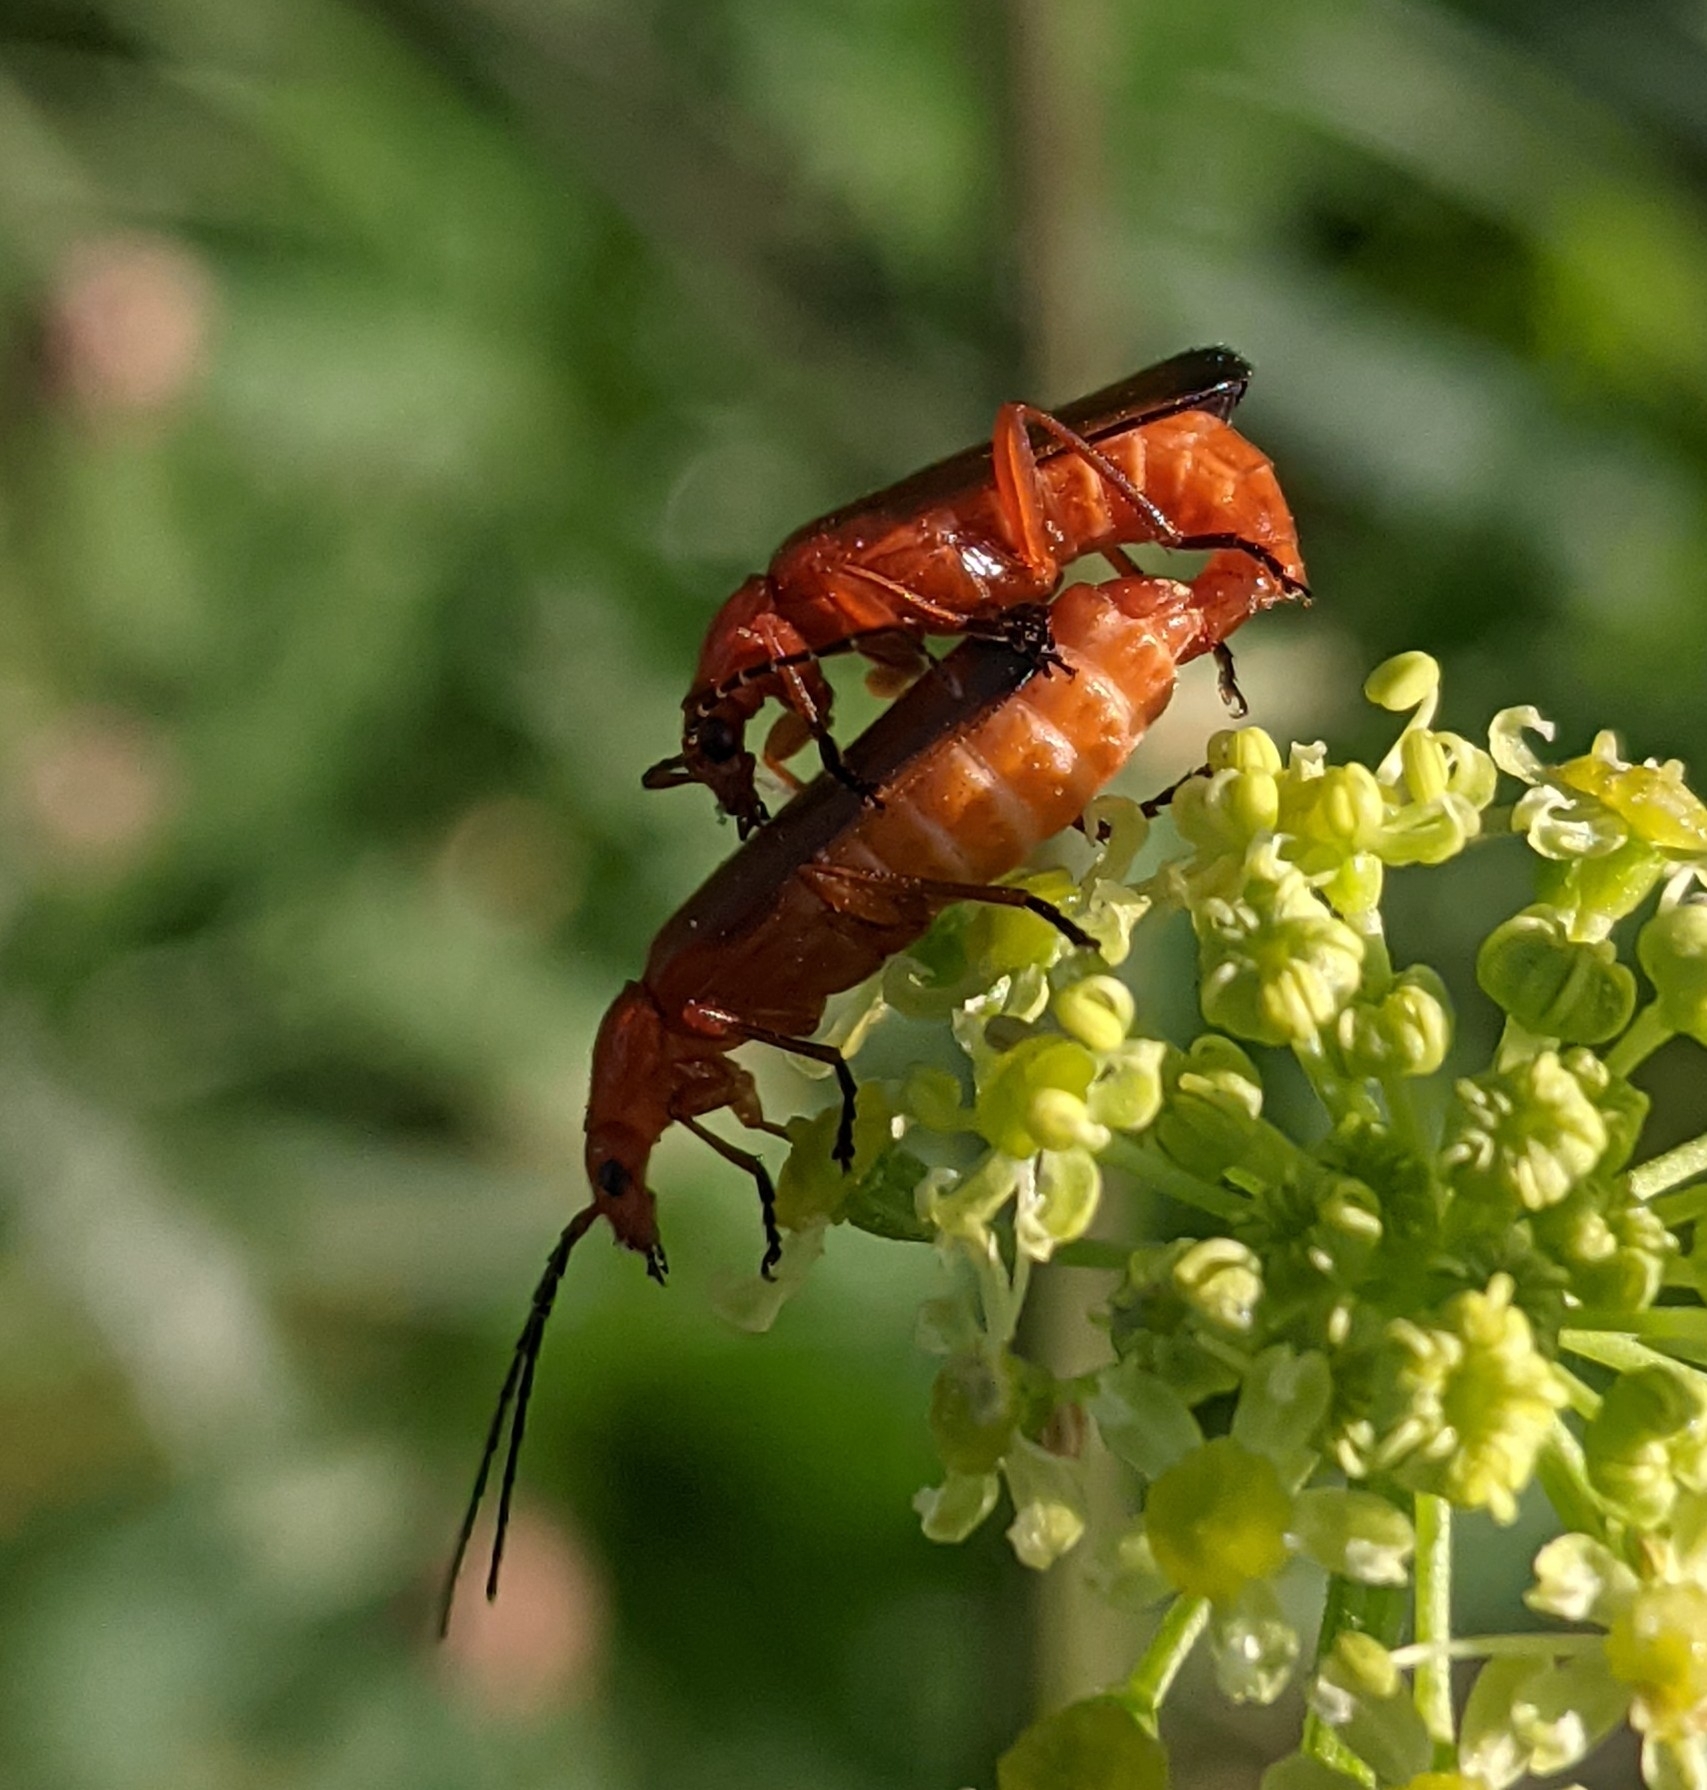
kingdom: Animalia
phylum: Arthropoda
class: Insecta
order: Coleoptera
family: Cantharidae
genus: Rhagonycha
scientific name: Rhagonycha fulva
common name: Common red soldier beetle
